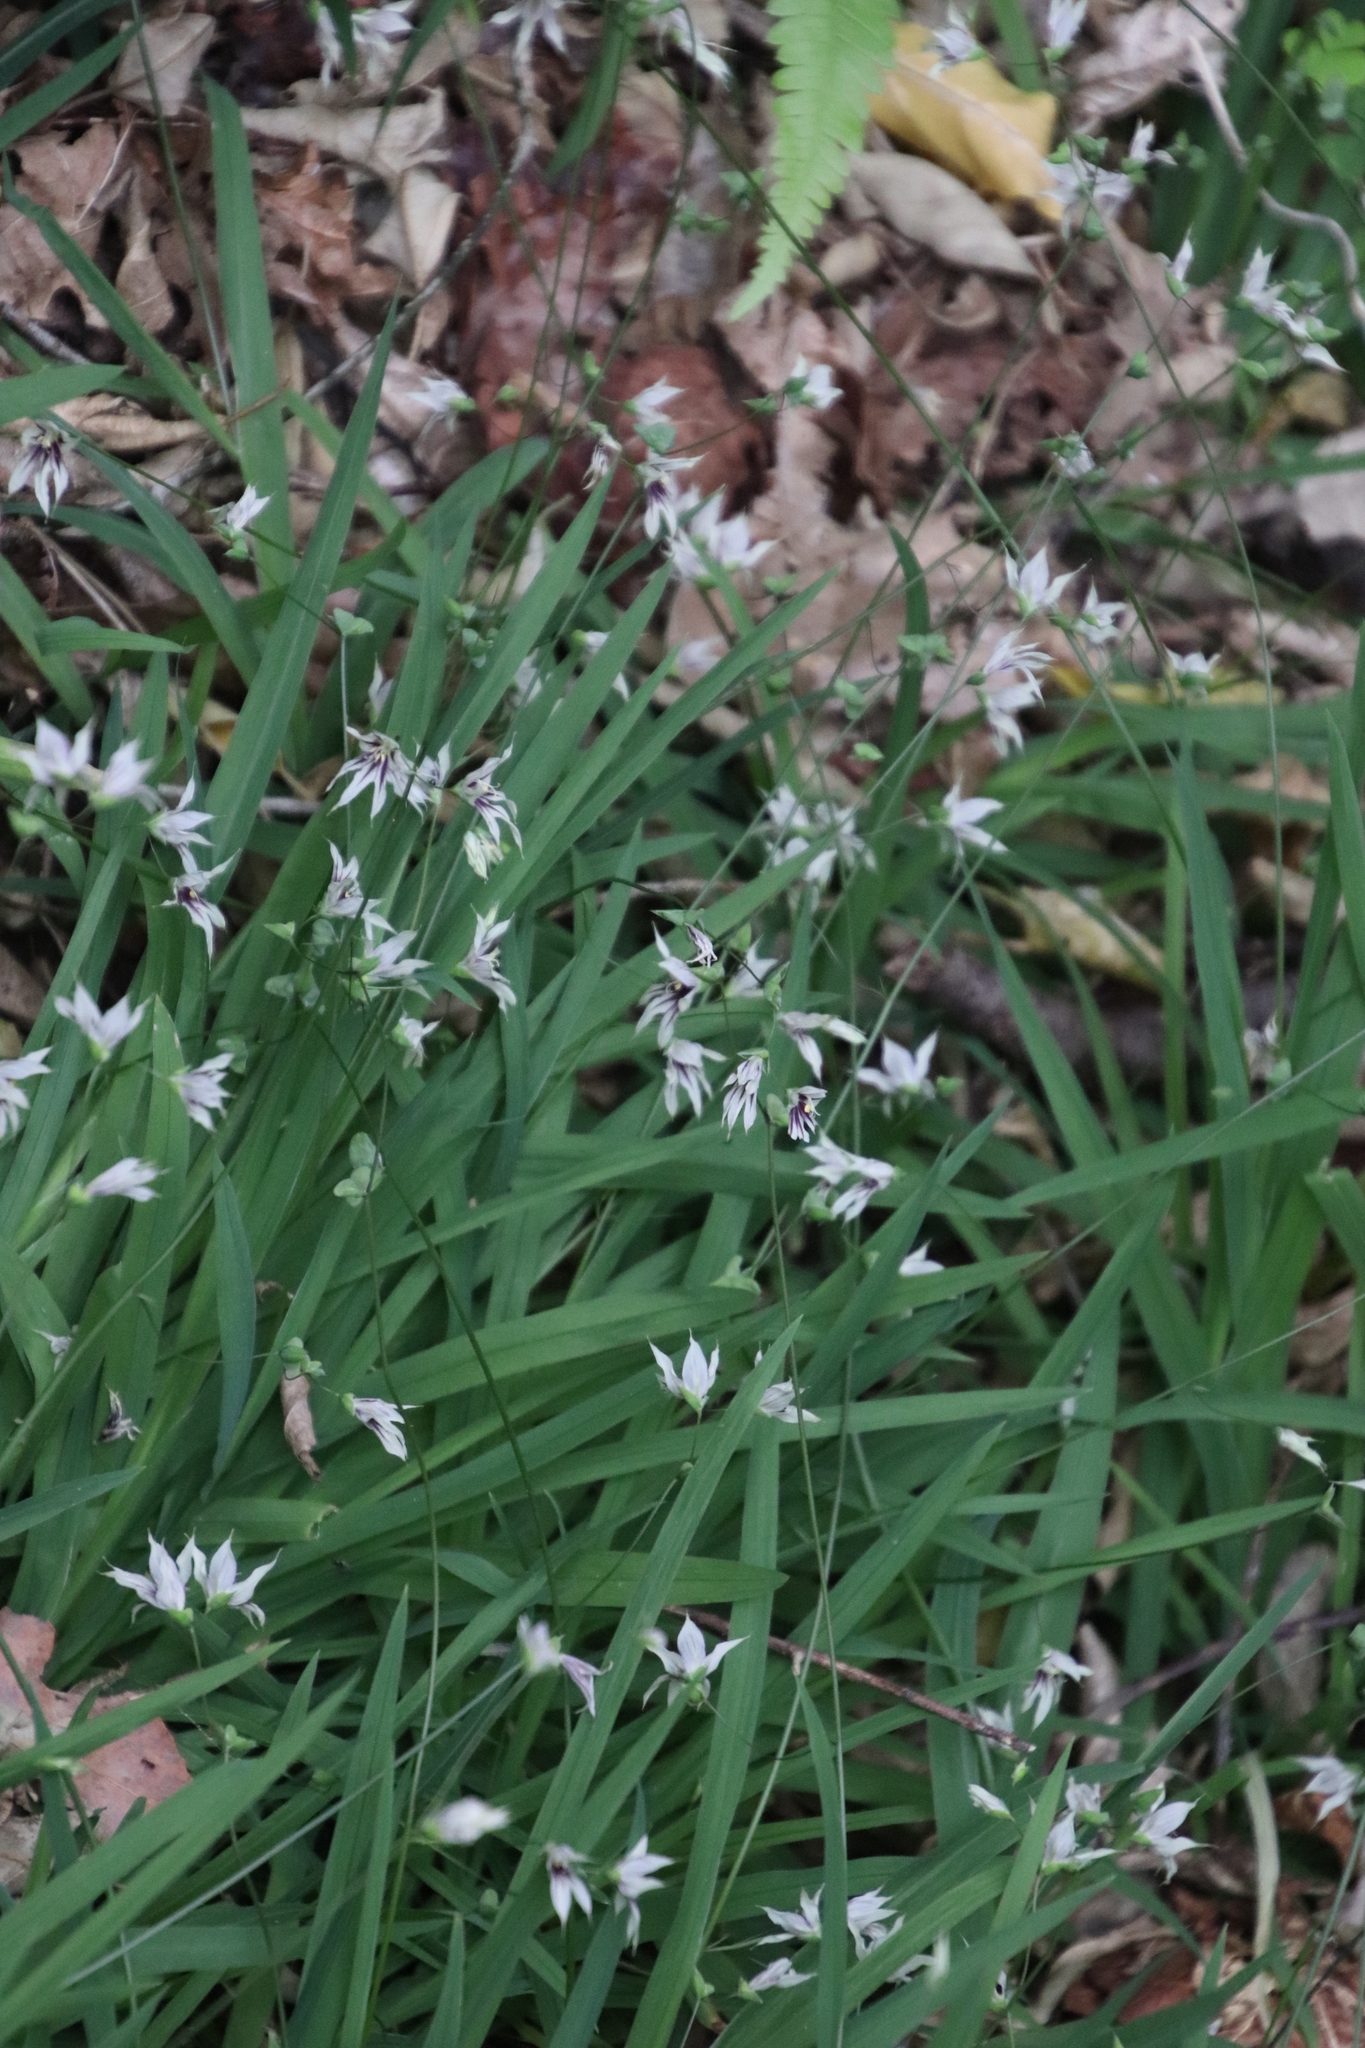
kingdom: Plantae
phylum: Tracheophyta
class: Liliopsida
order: Asparagales
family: Iridaceae
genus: Melasphaerula
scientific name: Melasphaerula graminea
